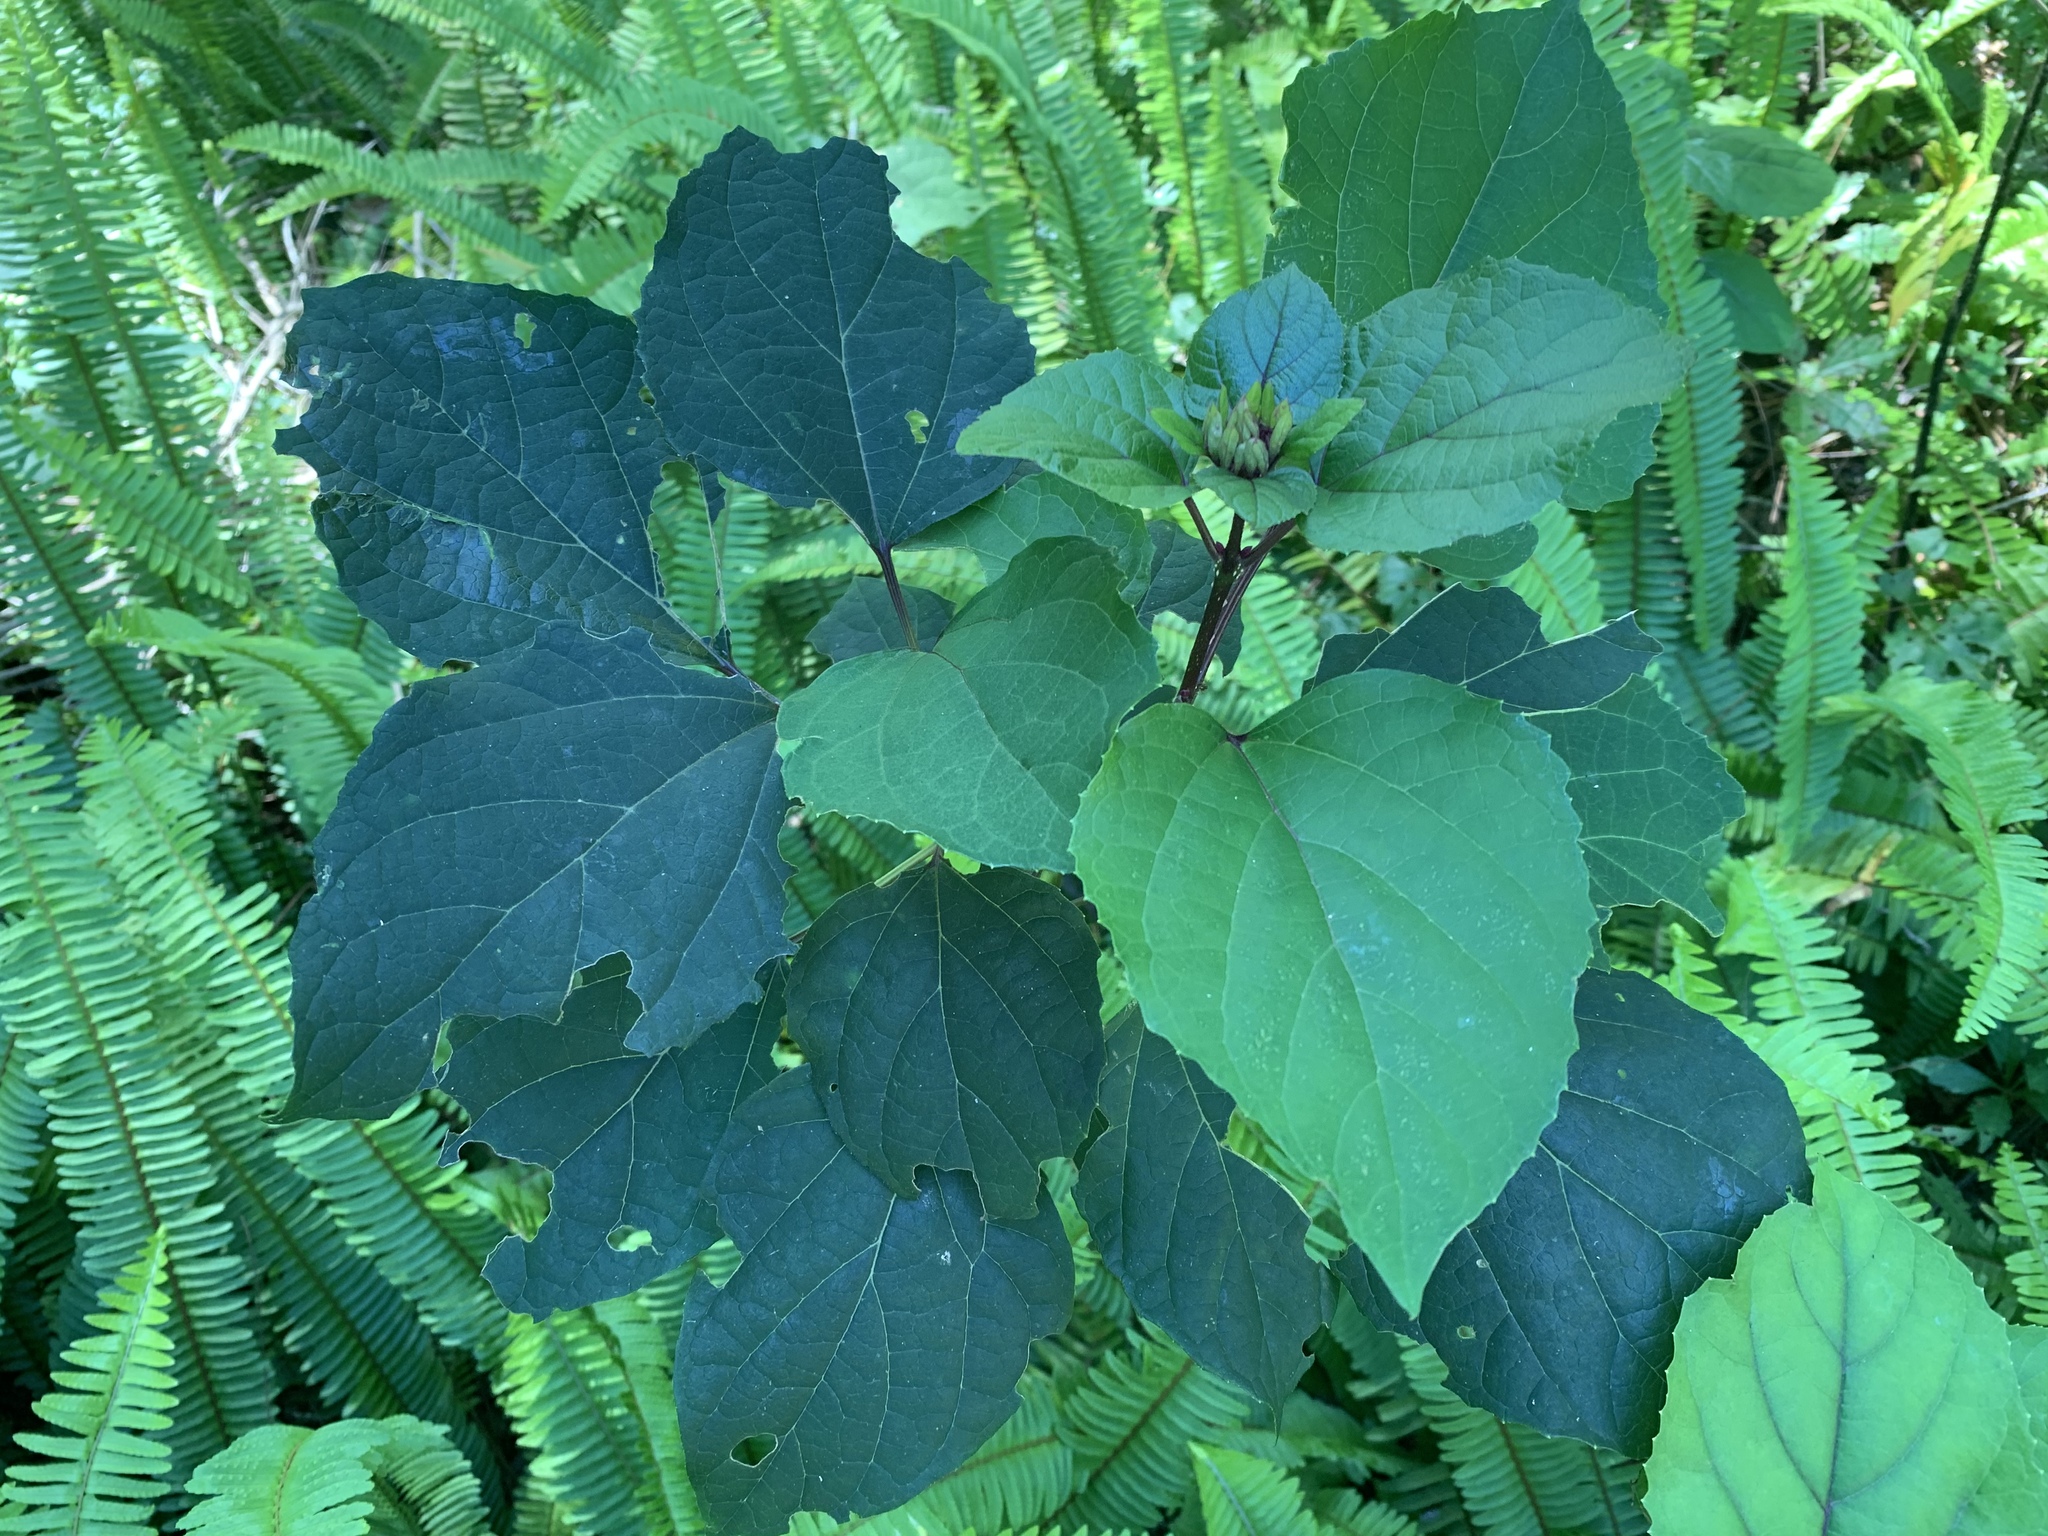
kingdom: Plantae
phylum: Tracheophyta
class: Magnoliopsida
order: Lamiales
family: Lamiaceae
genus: Clerodendrum
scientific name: Clerodendrum bungei
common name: Rose glorybower
